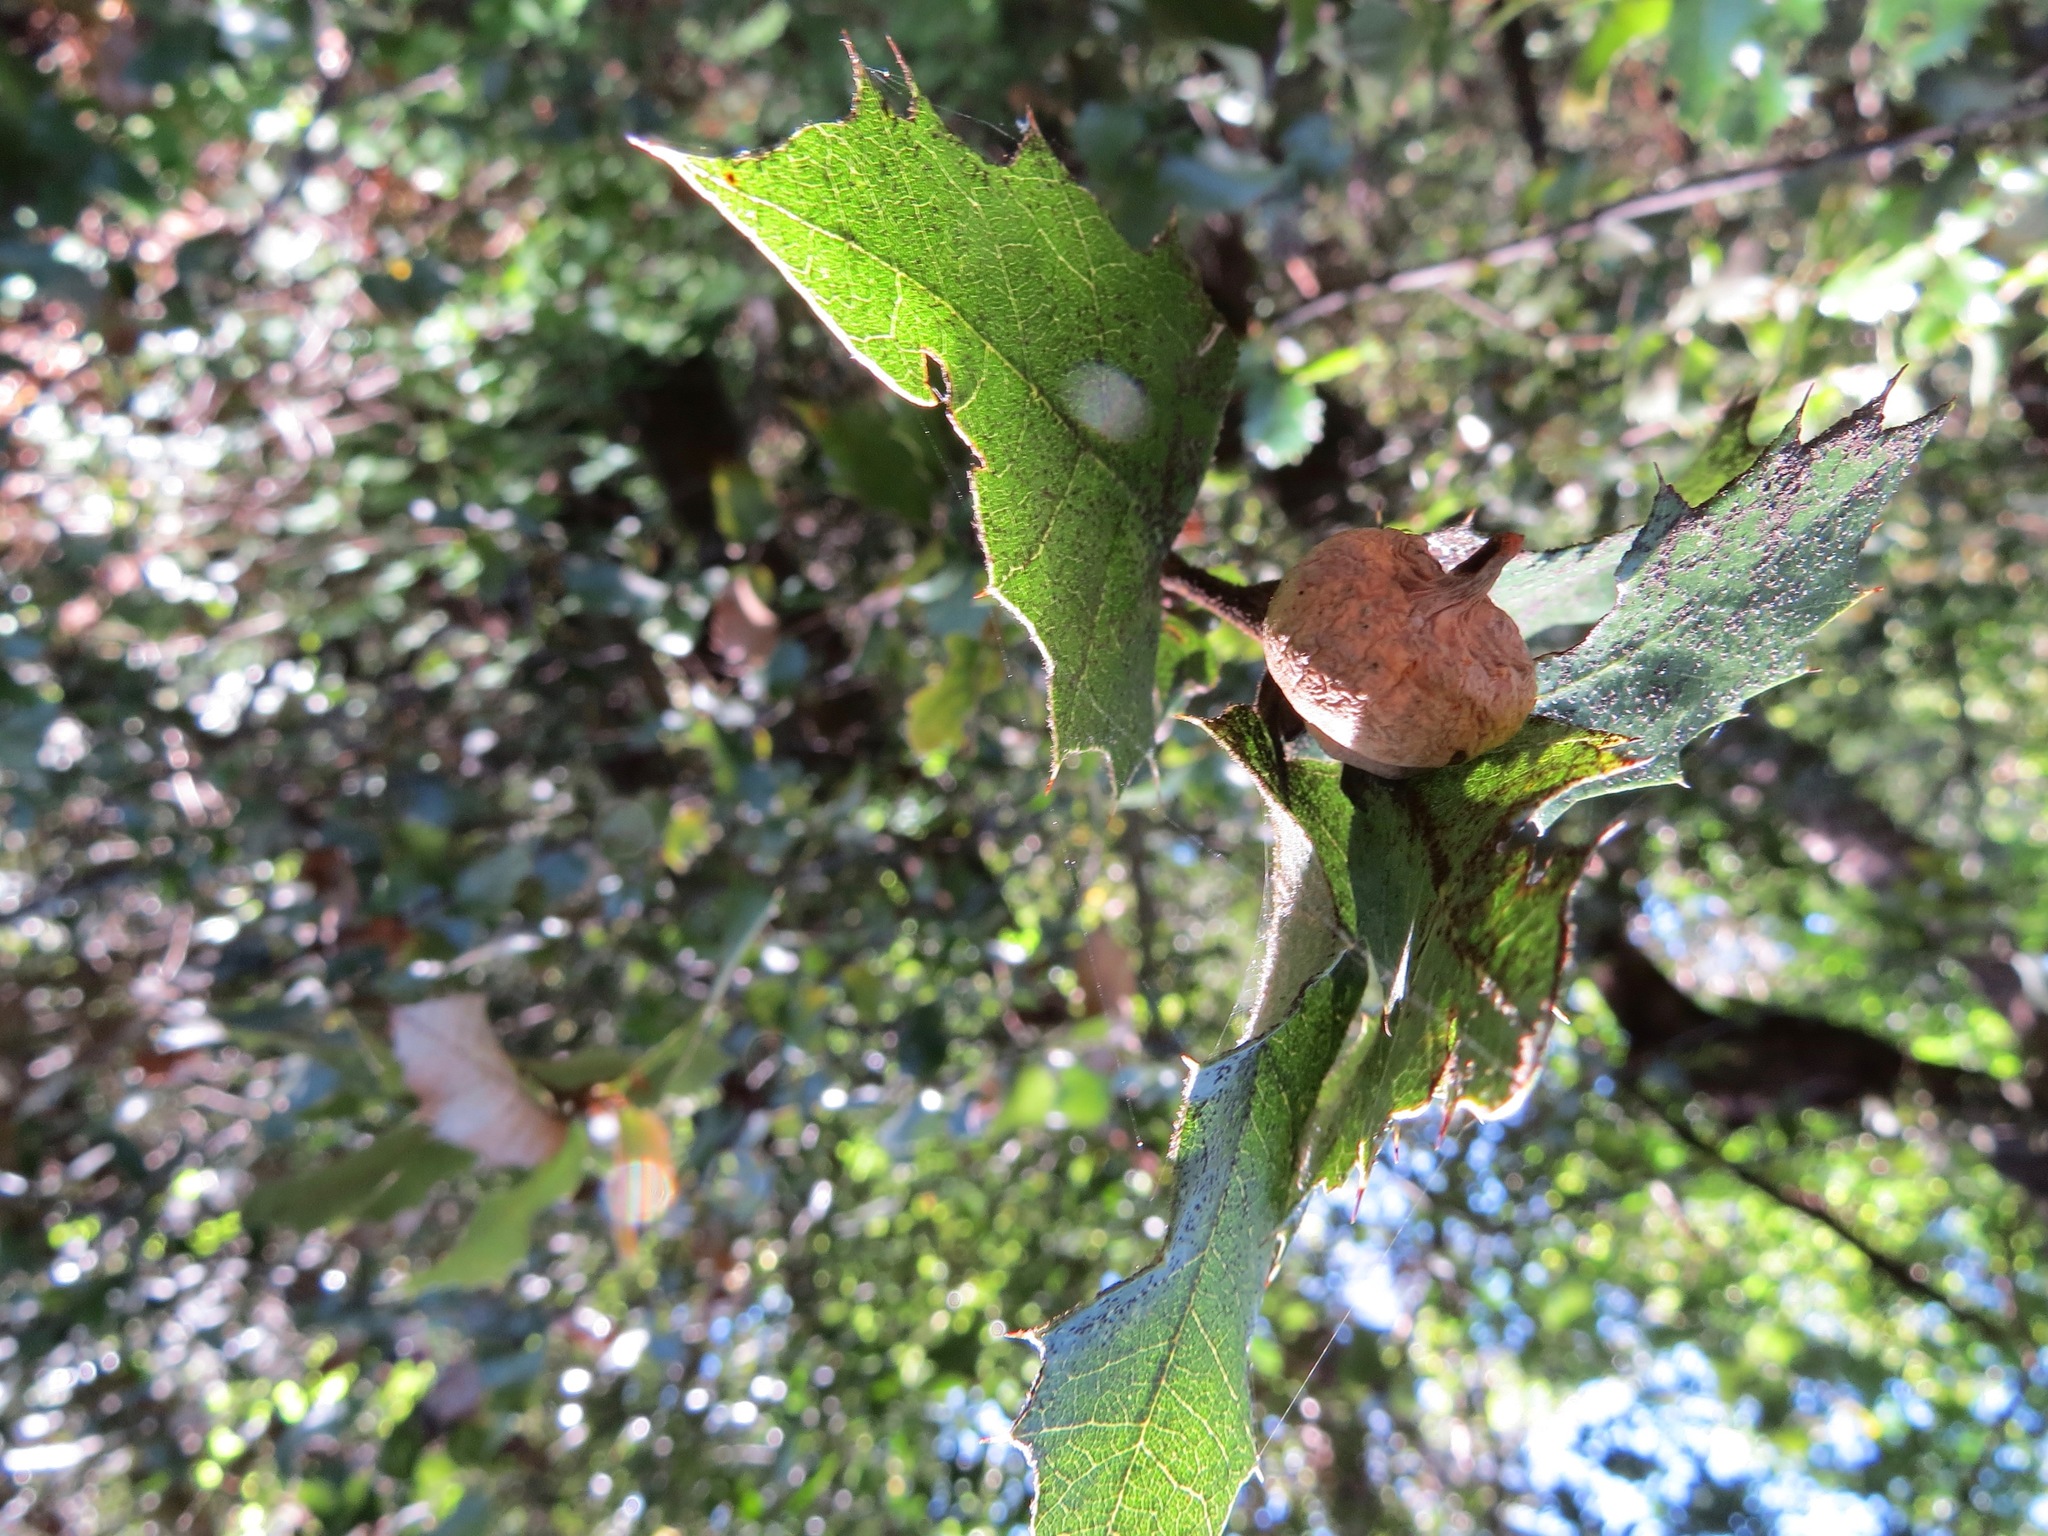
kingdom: Animalia
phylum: Arthropoda
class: Insecta
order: Hymenoptera
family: Cynipidae
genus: Heteroecus
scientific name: Heteroecus
